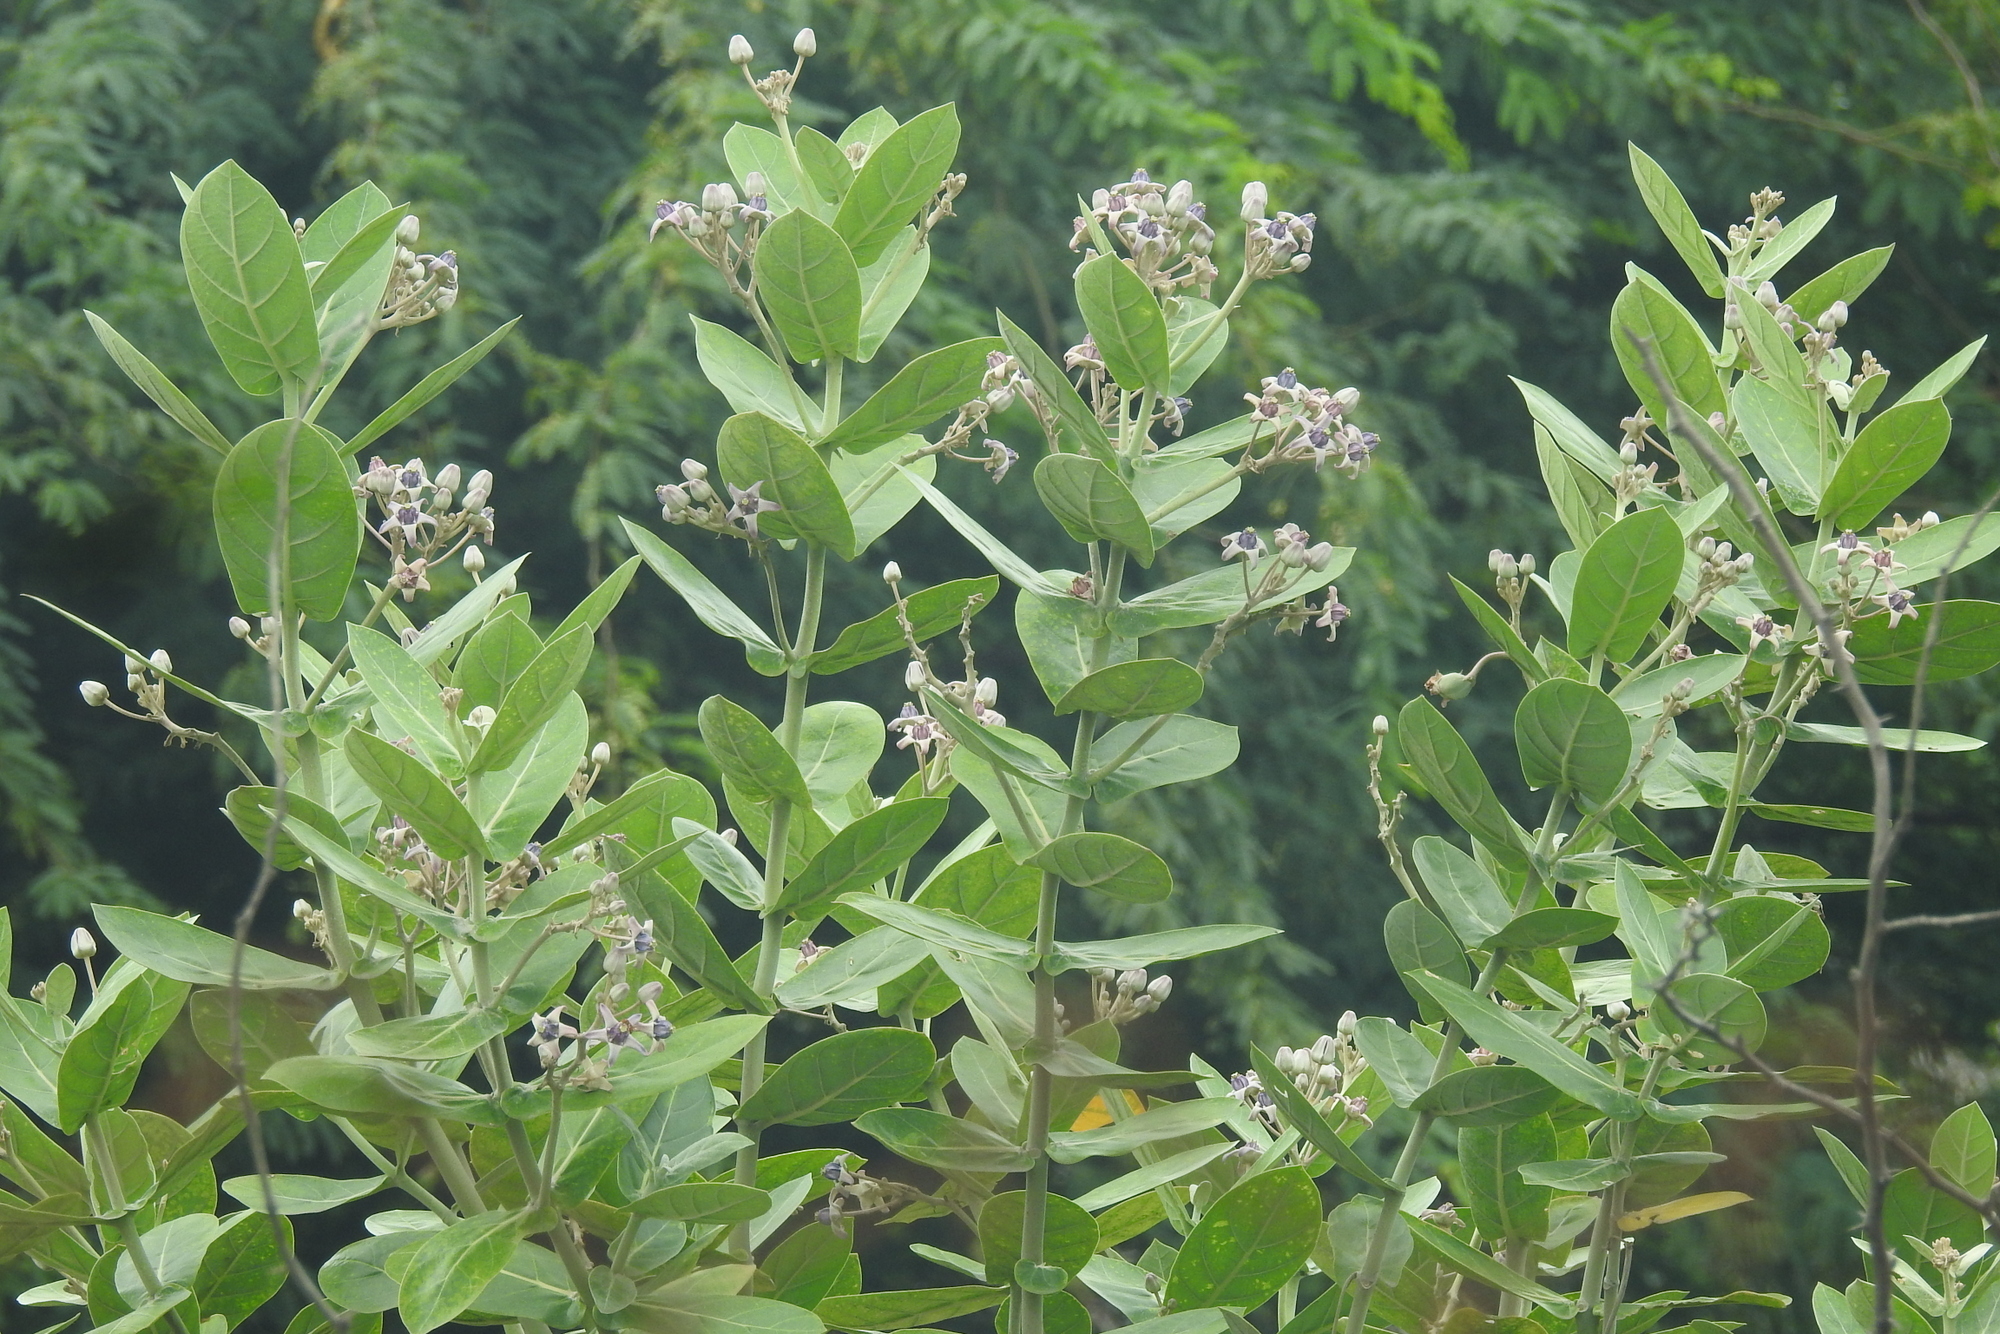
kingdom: Plantae
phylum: Tracheophyta
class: Magnoliopsida
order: Gentianales
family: Apocynaceae
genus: Calotropis
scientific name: Calotropis gigantea
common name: Crown flower
